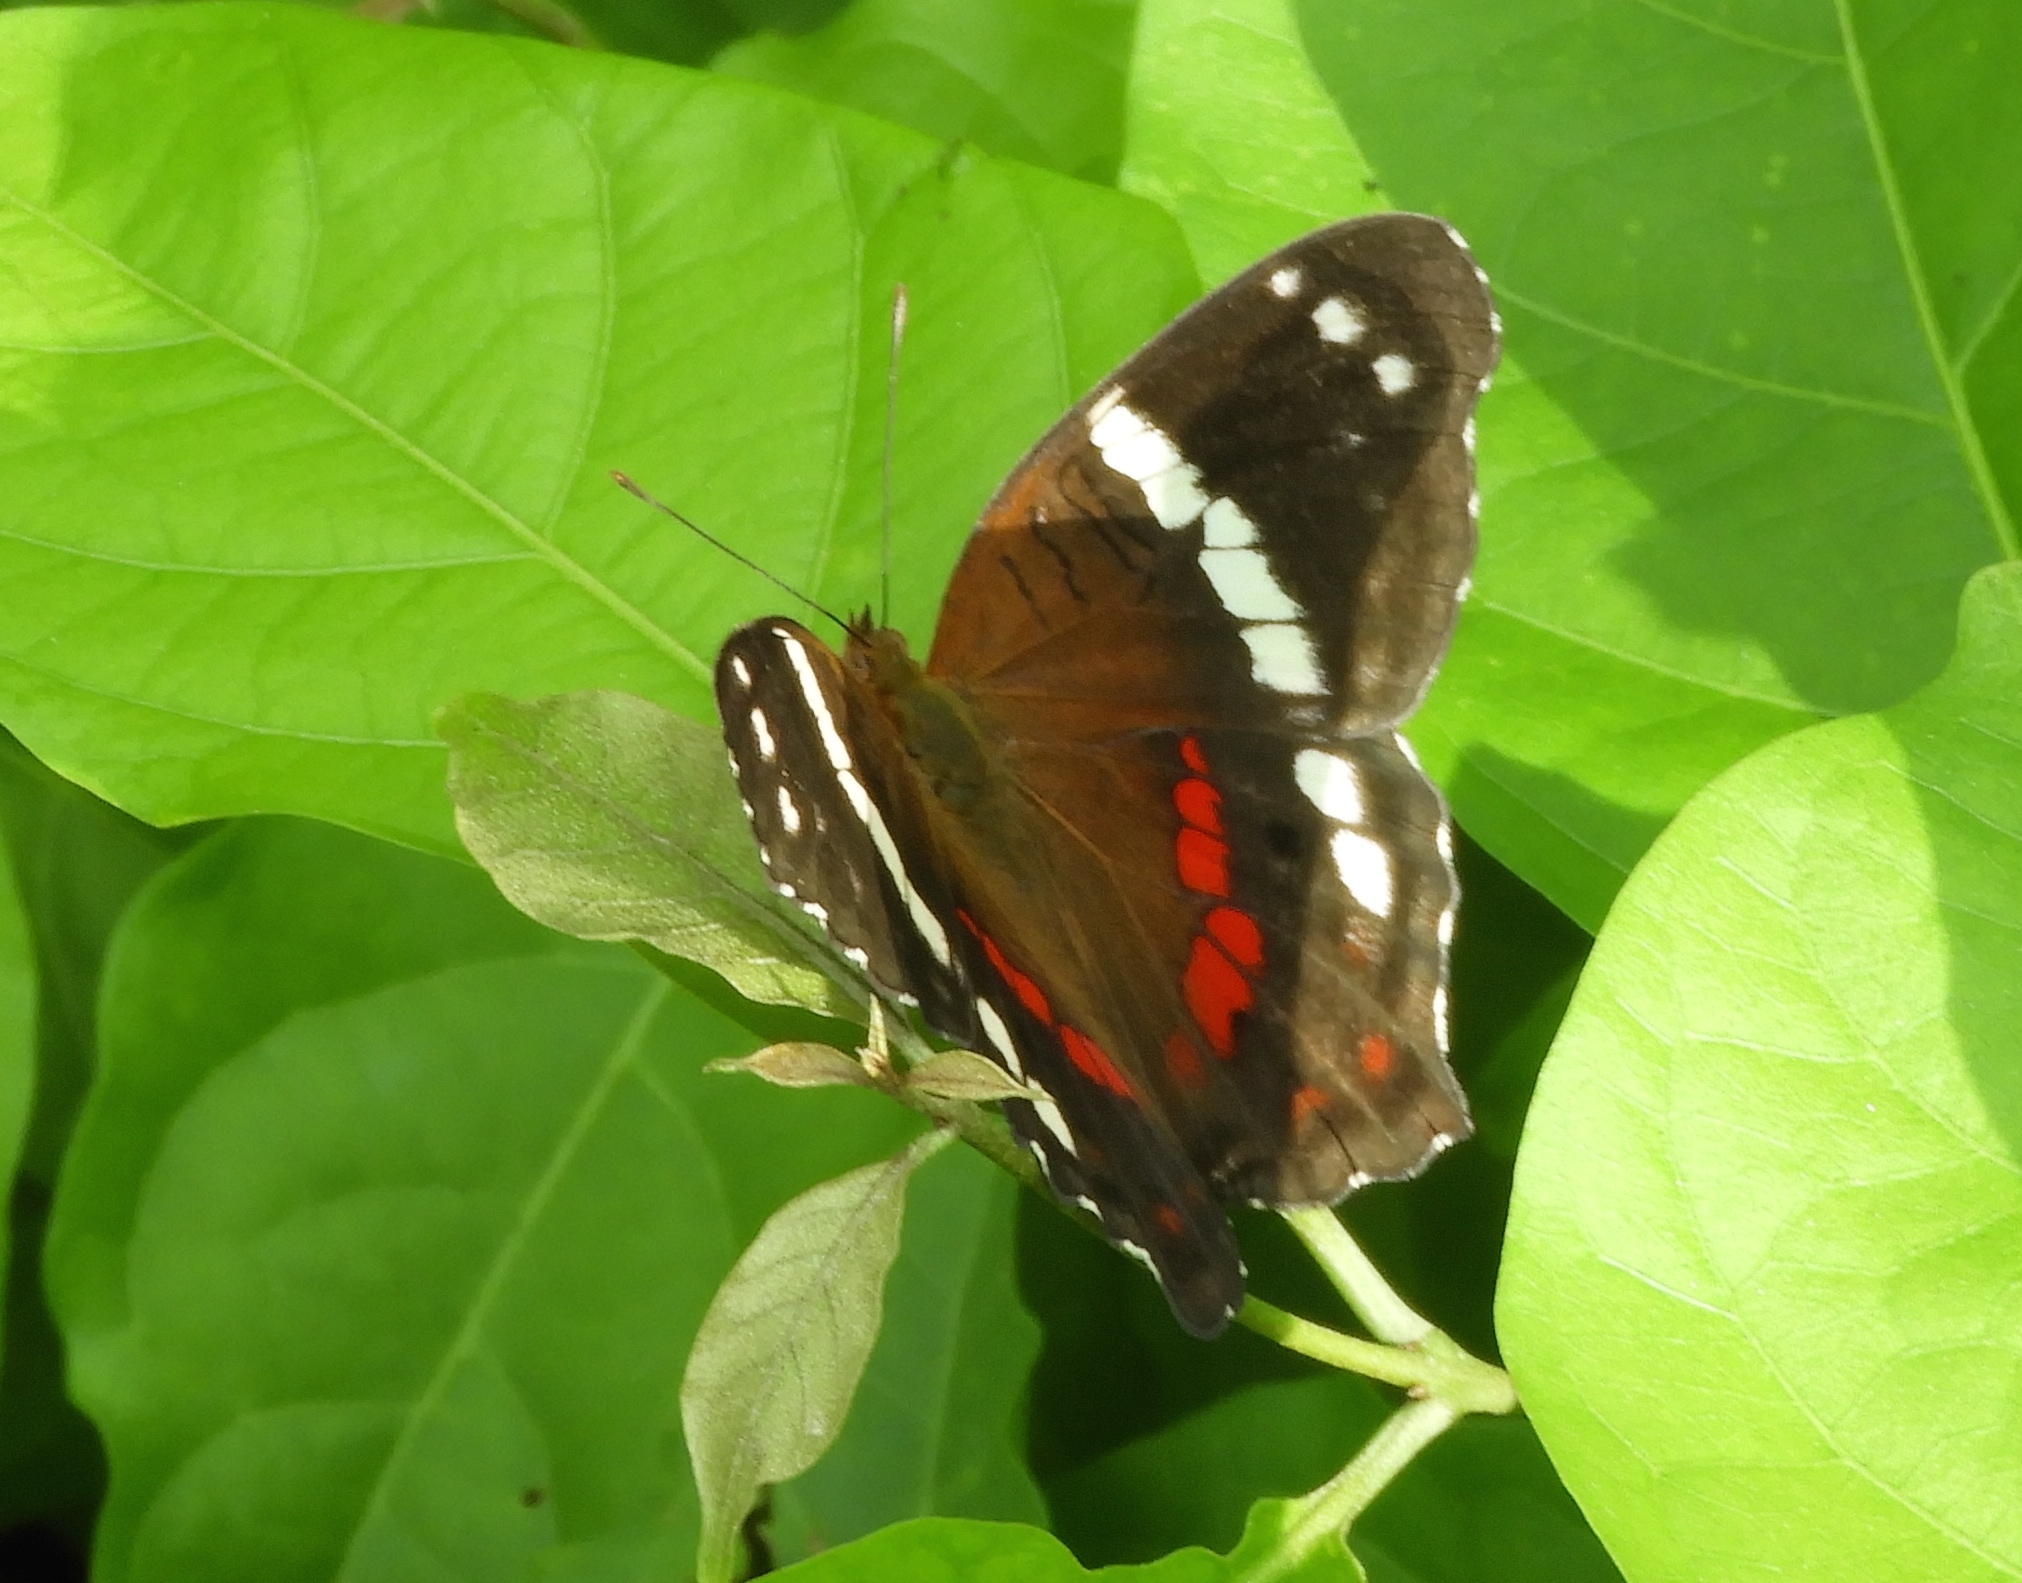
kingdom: Animalia
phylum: Arthropoda
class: Insecta
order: Lepidoptera
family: Nymphalidae
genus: Anartia
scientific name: Anartia fatima
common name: Banded peacock
